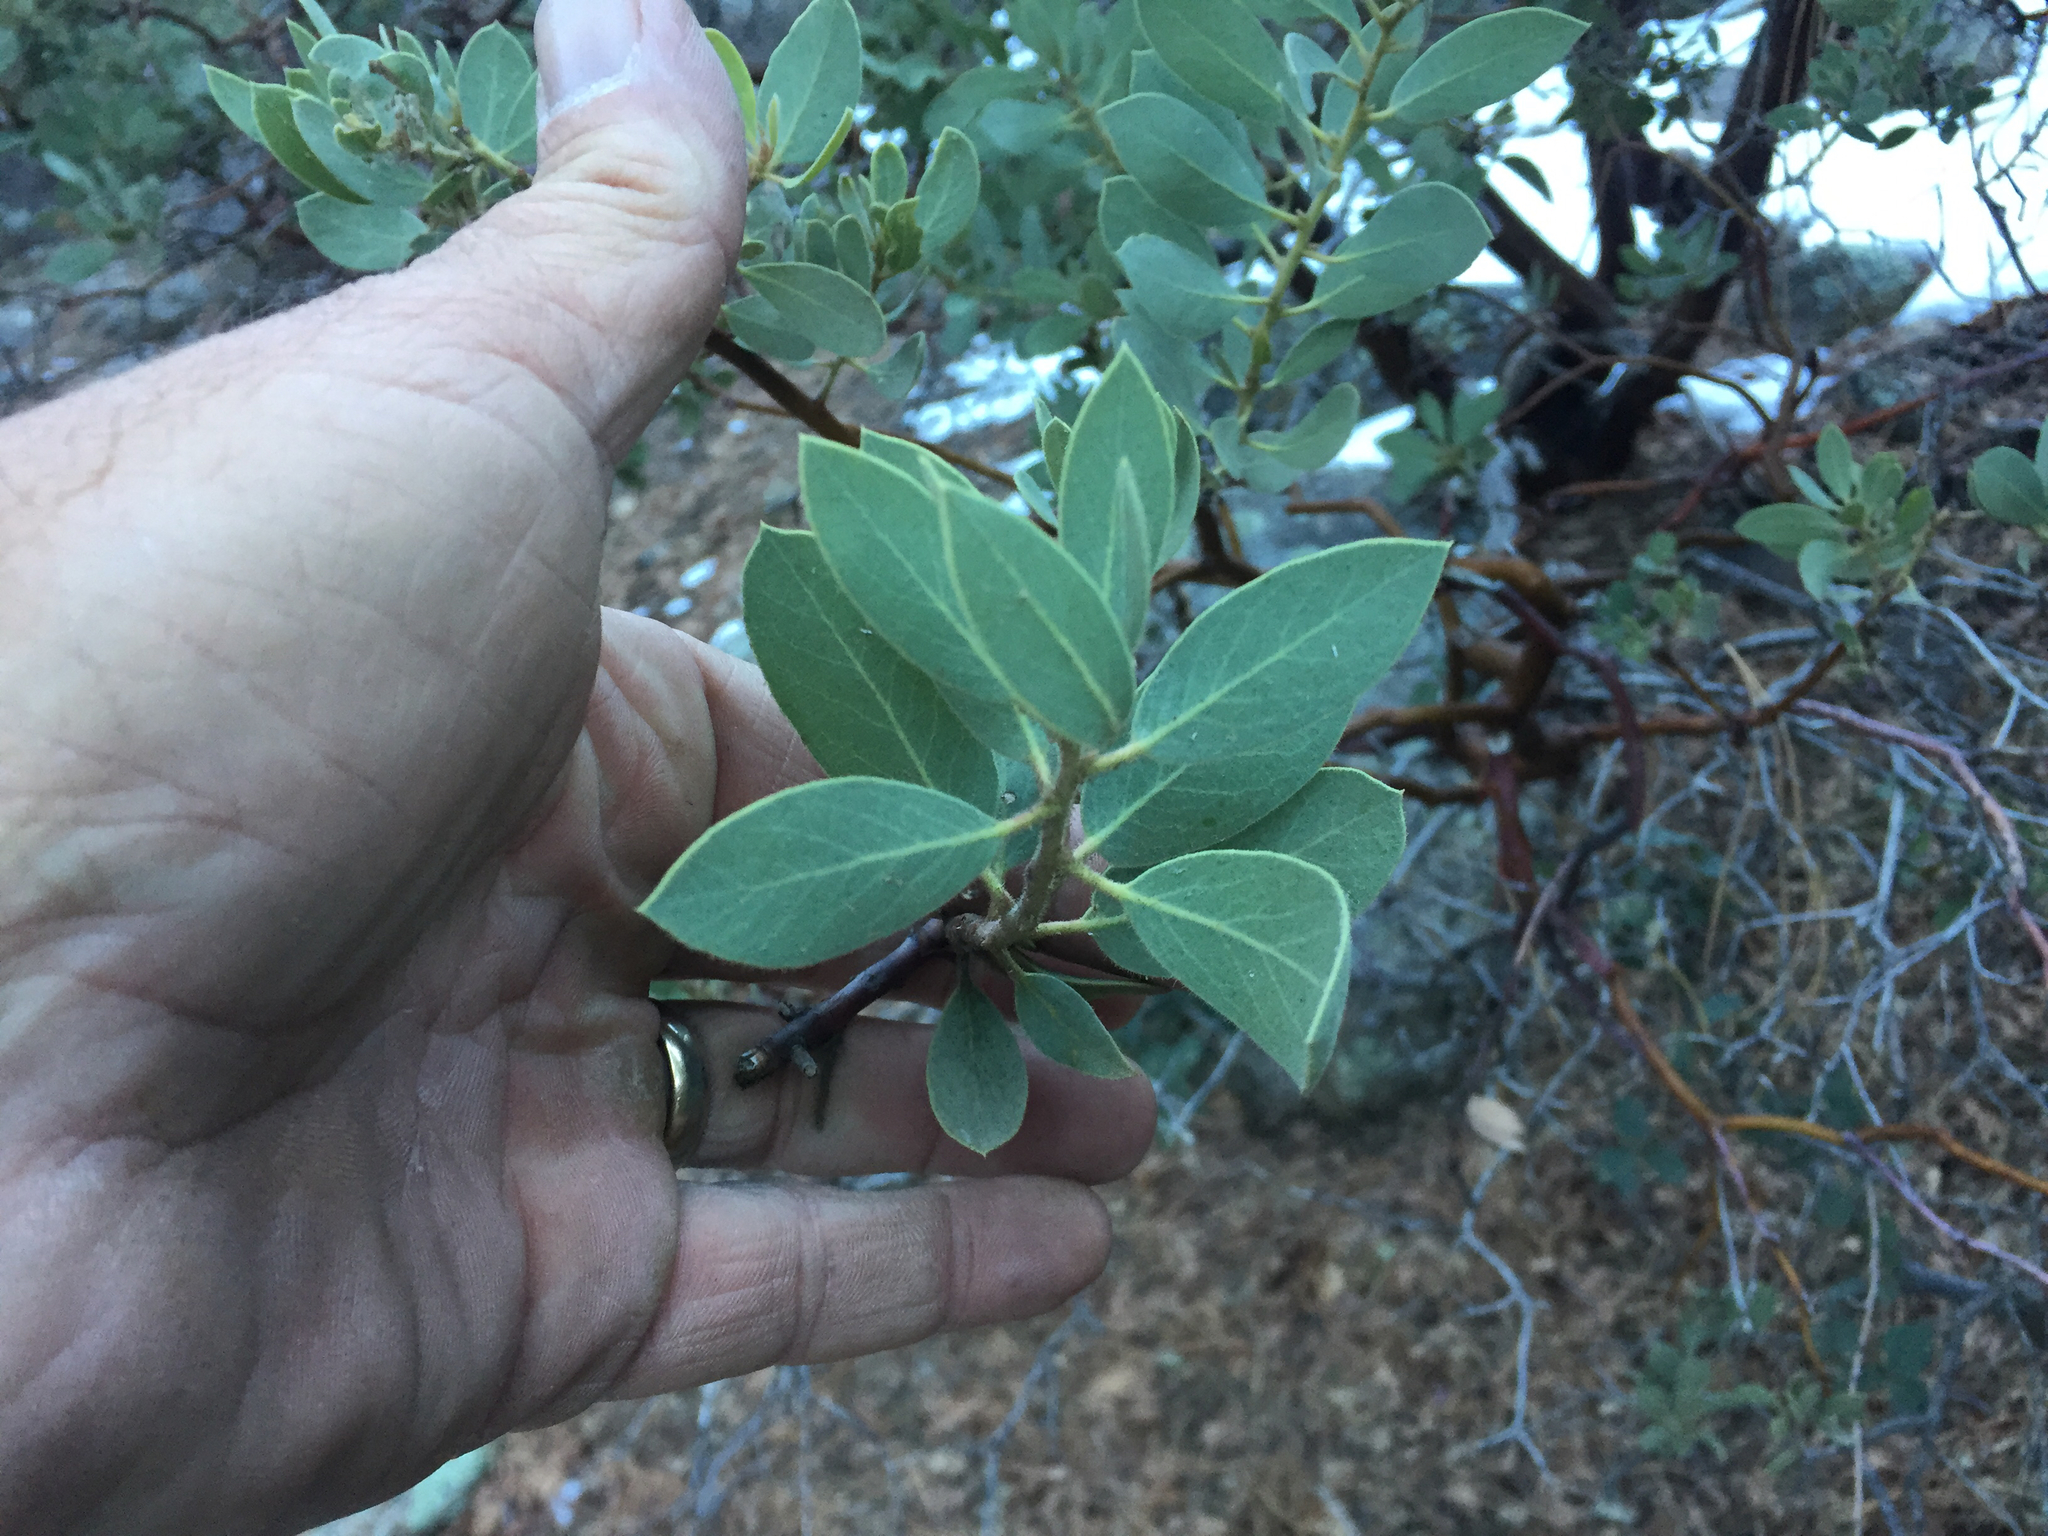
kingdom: Plantae
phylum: Tracheophyta
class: Magnoliopsida
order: Ericales
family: Ericaceae
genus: Arctostaphylos
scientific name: Arctostaphylos pungens
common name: Mexican manzanita
